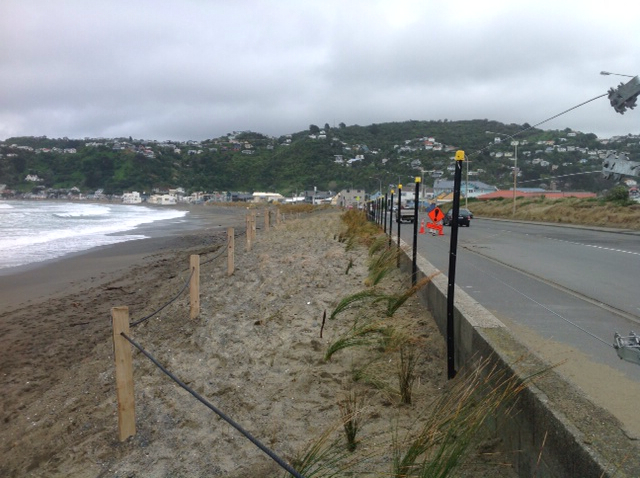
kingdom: Plantae
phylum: Tracheophyta
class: Liliopsida
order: Poales
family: Cyperaceae
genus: Ficinia
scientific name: Ficinia nodosa
